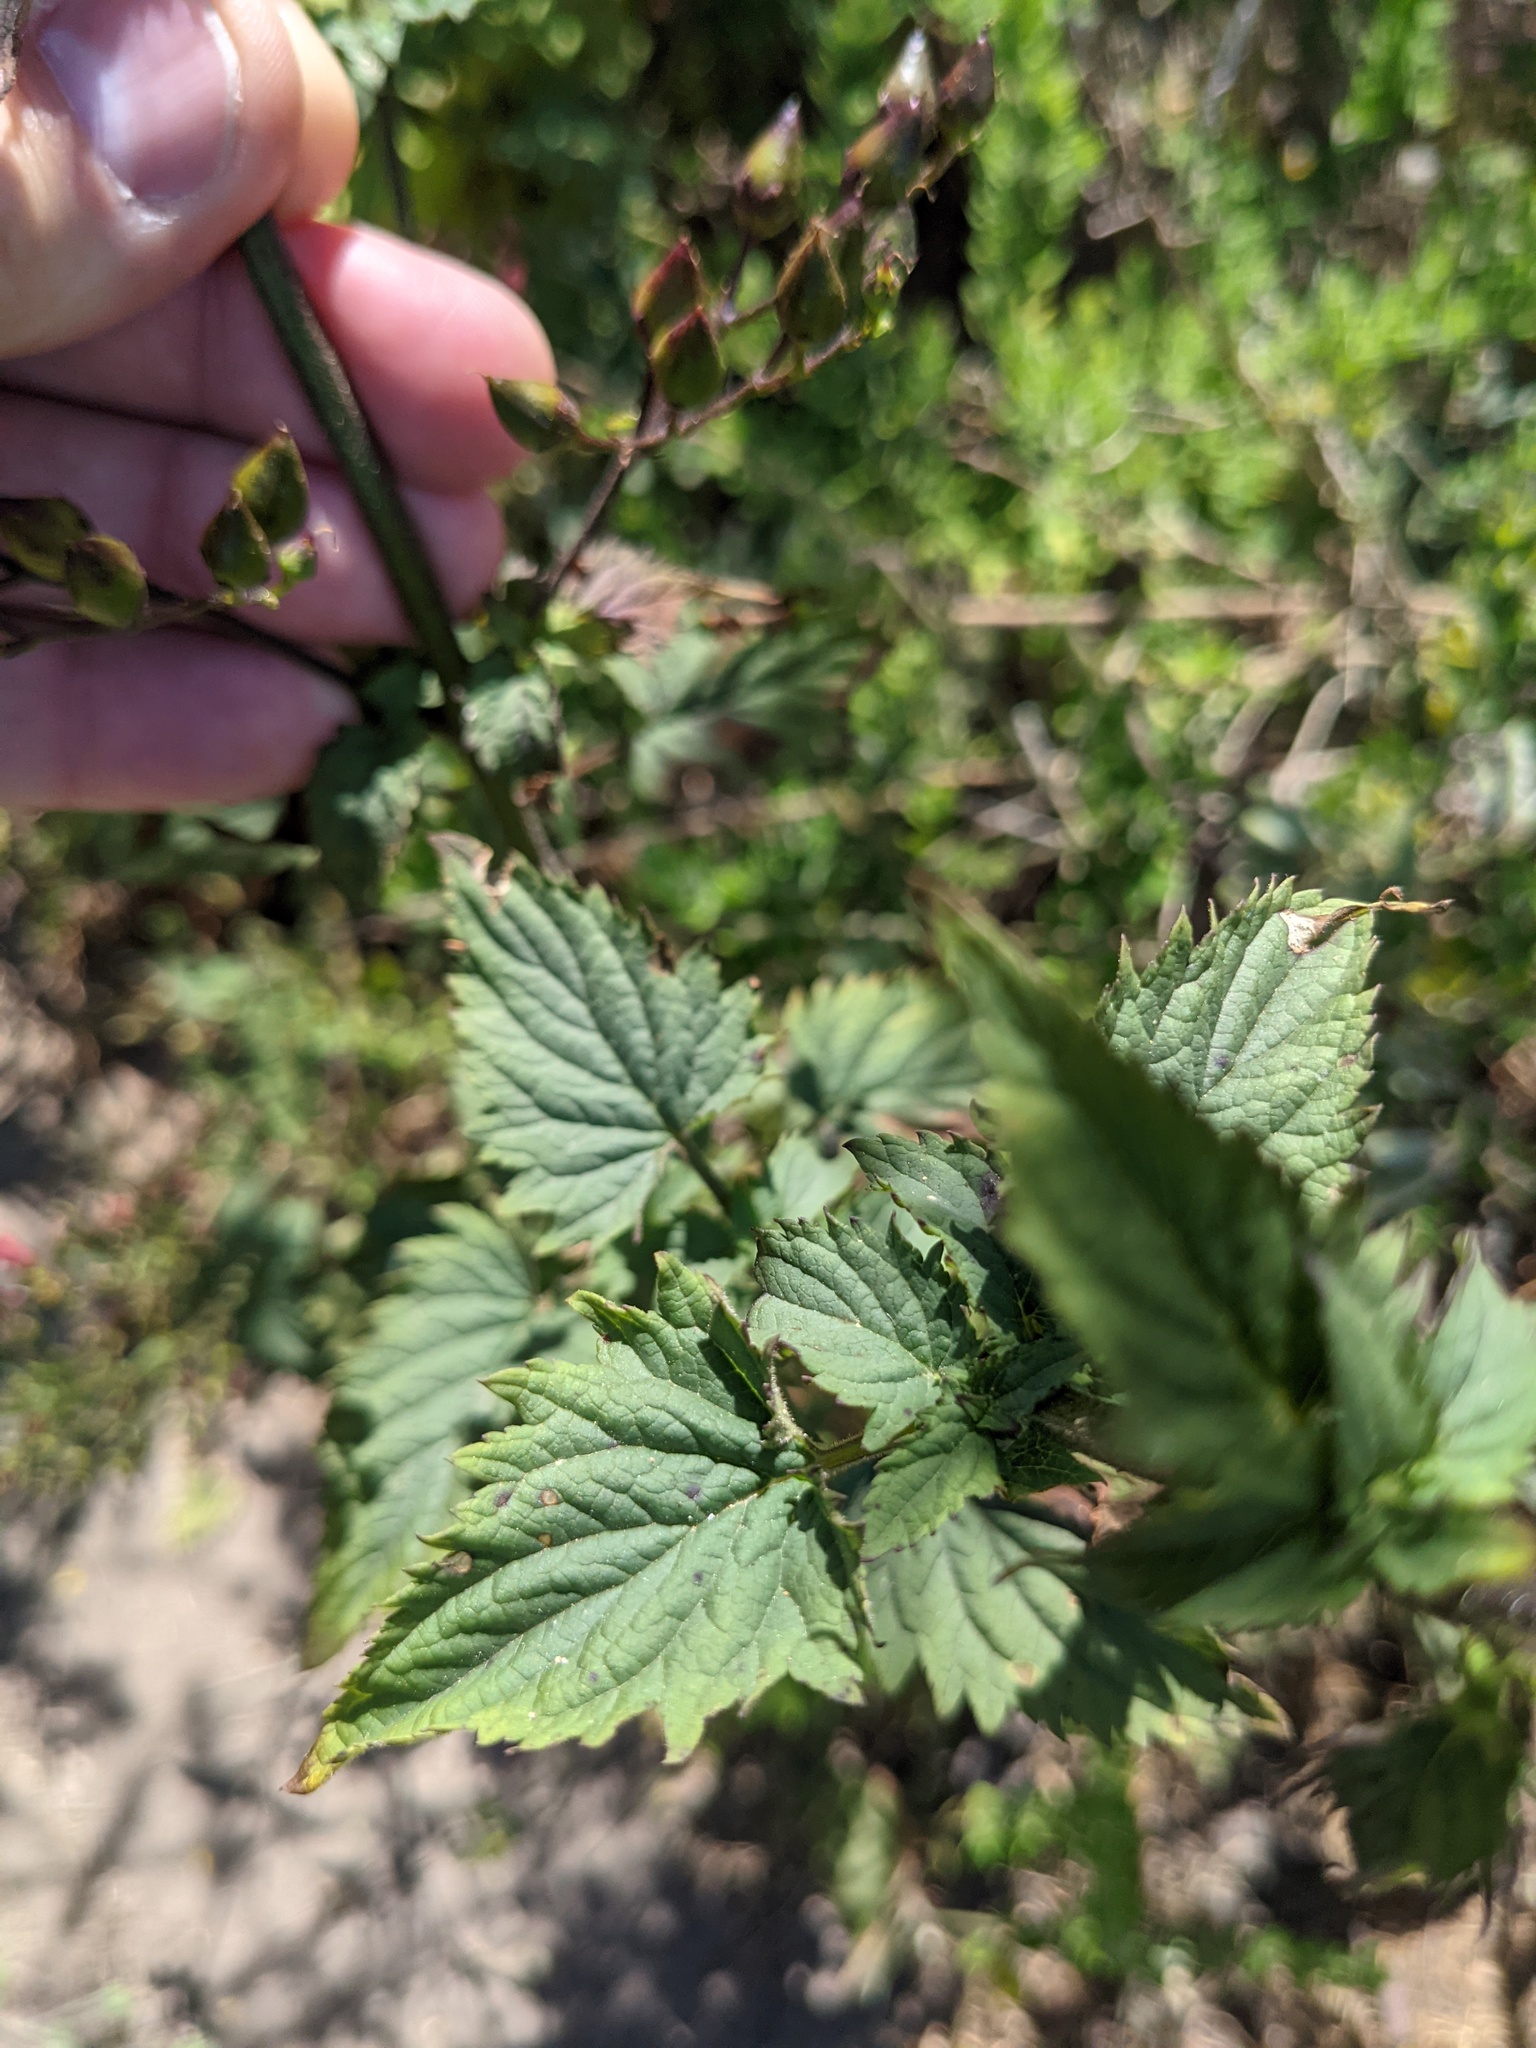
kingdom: Plantae
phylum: Tracheophyta
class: Magnoliopsida
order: Lamiales
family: Scrophulariaceae
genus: Scrophularia
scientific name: Scrophularia californica
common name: California figwort
